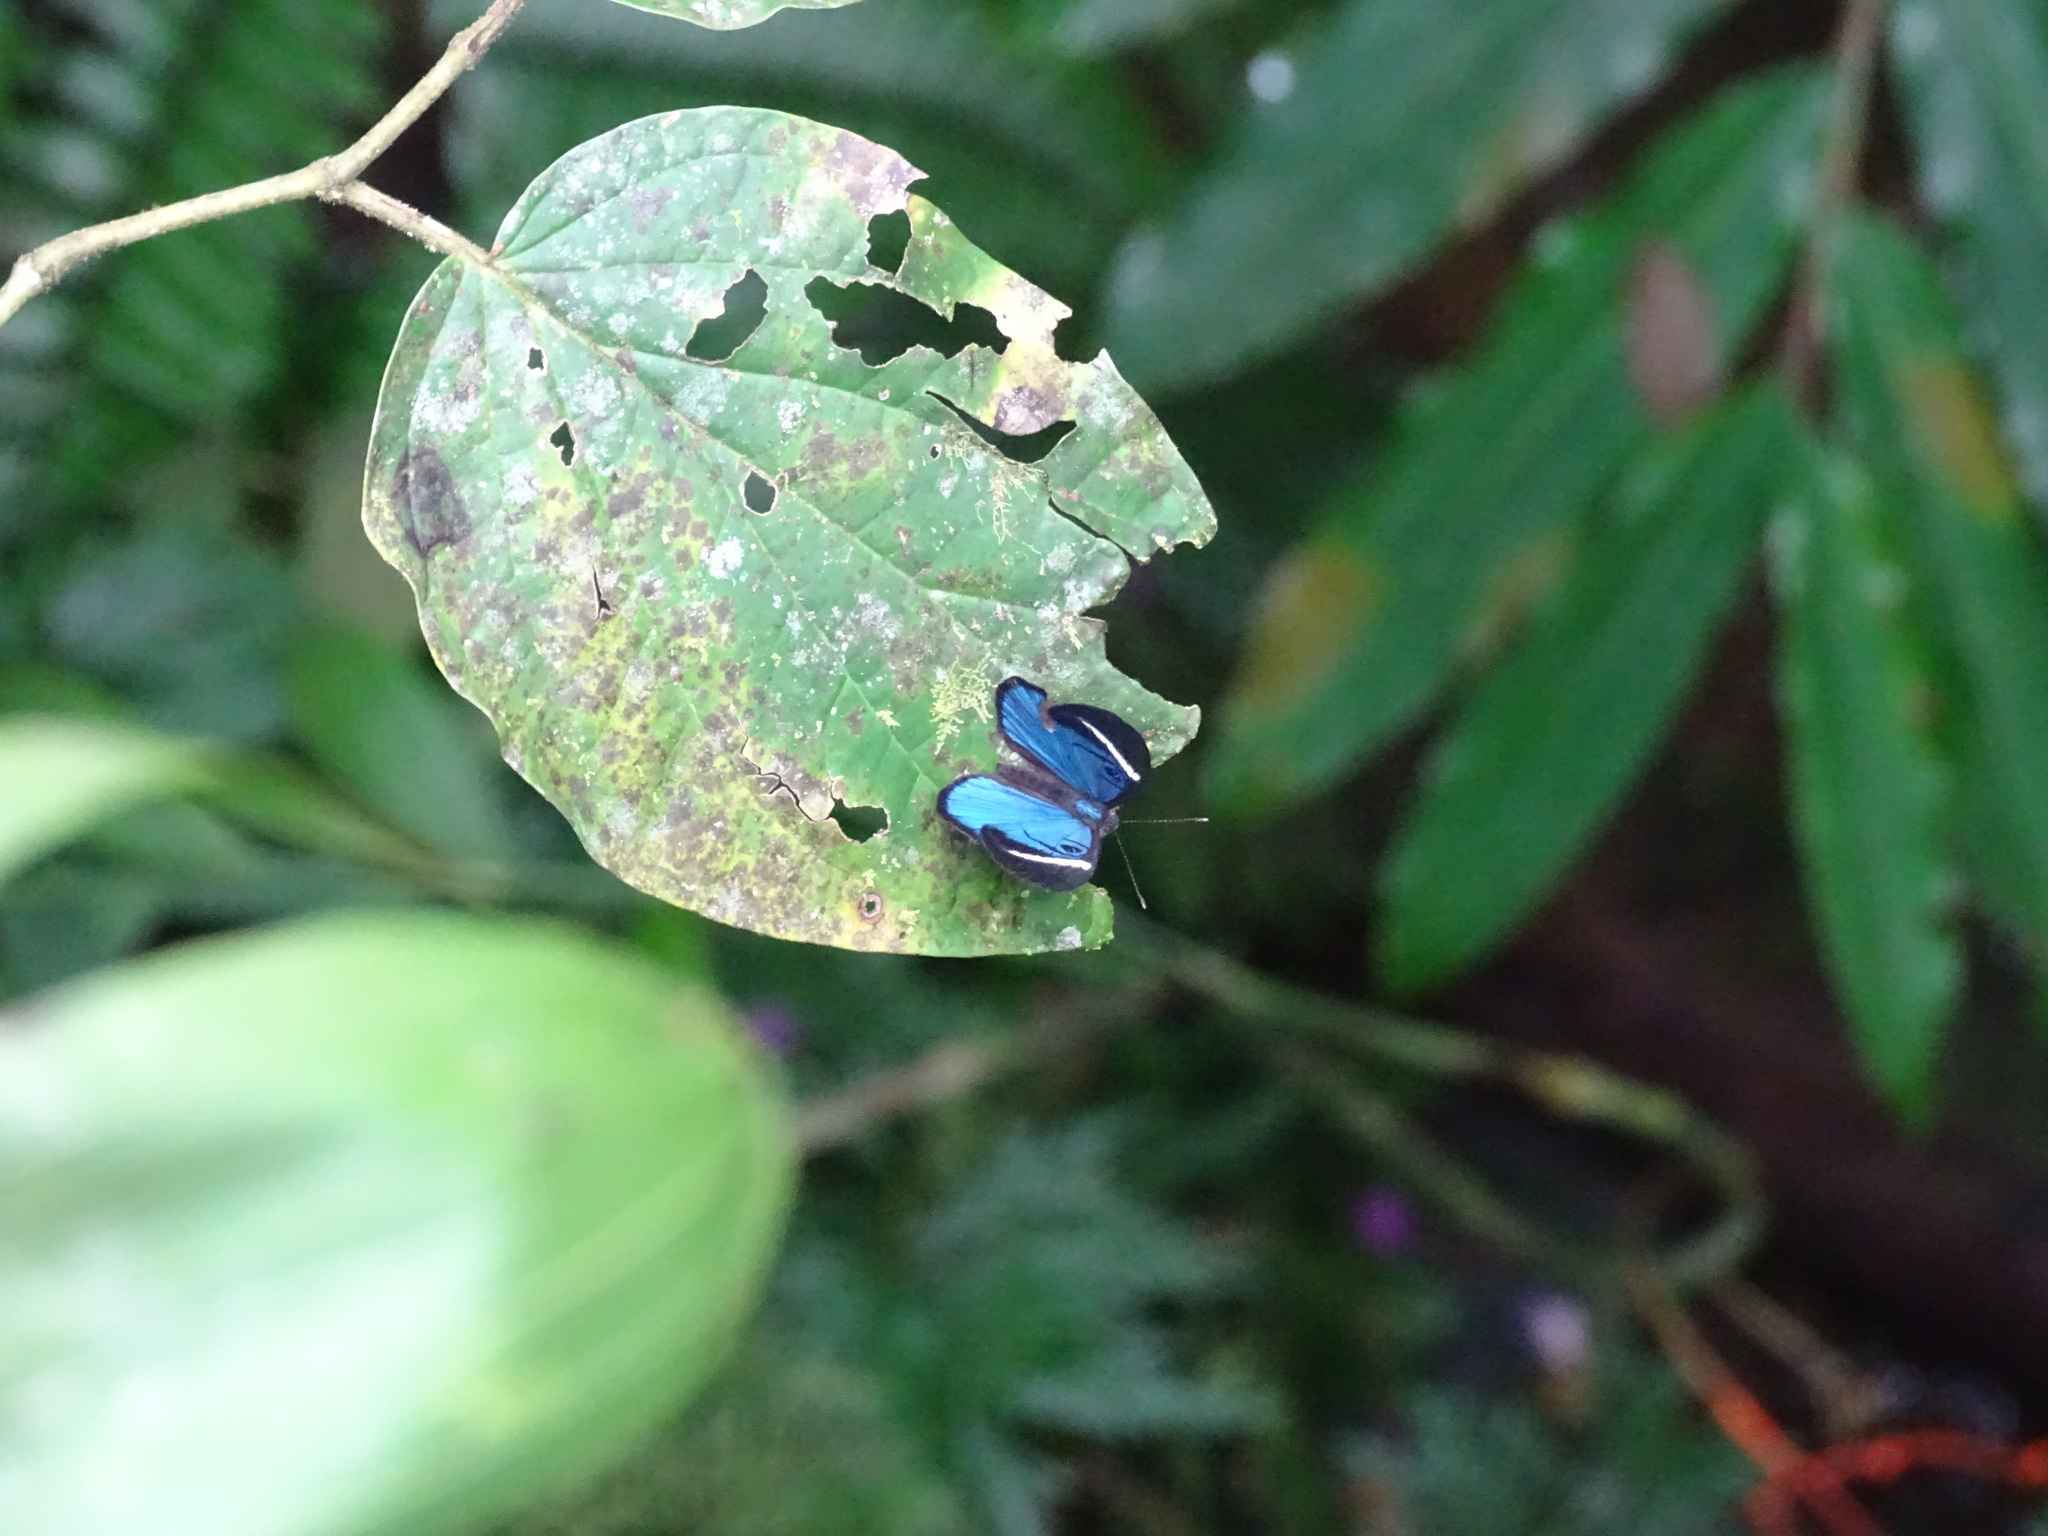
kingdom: Animalia
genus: Mesosemia
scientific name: Mesosemia mevania
